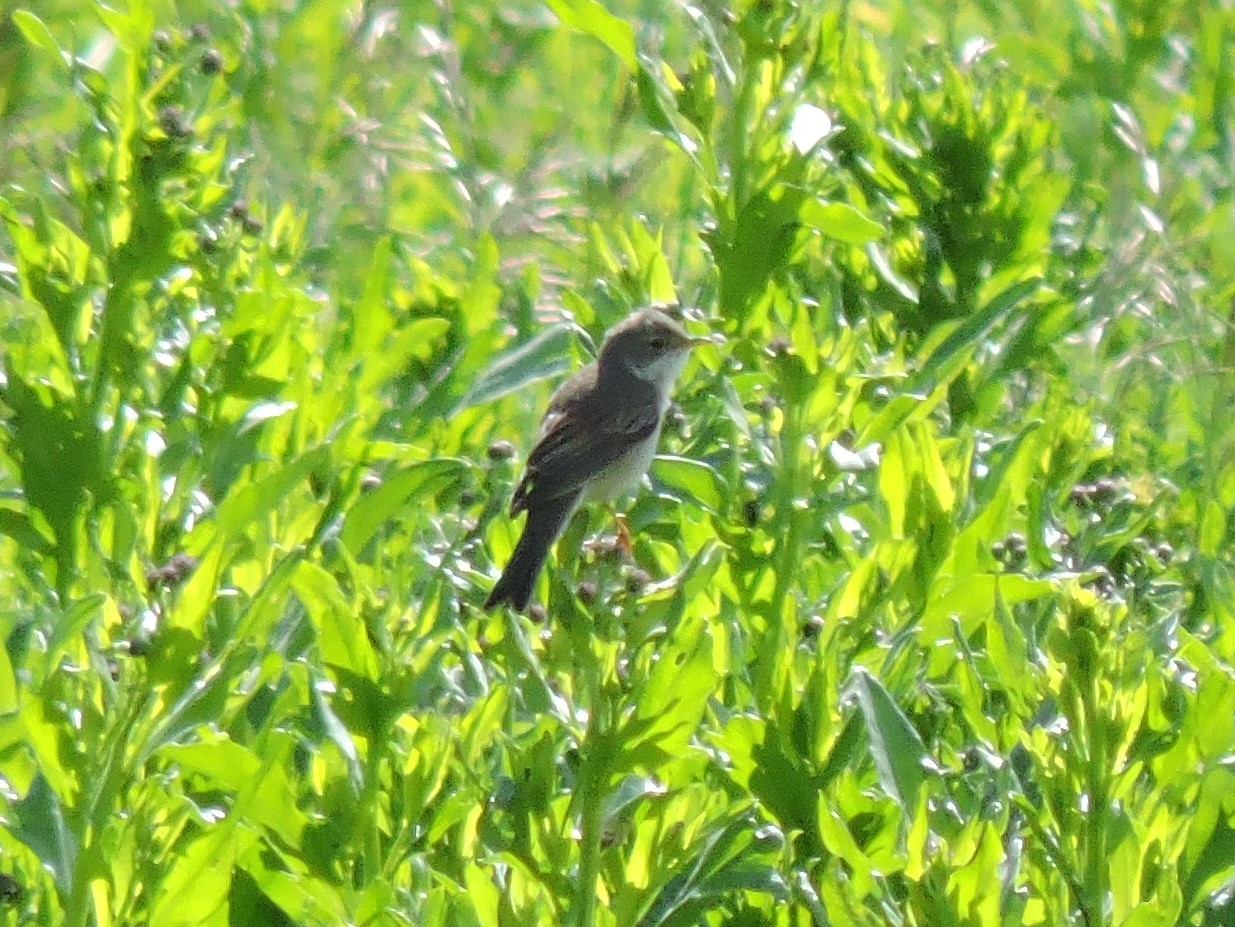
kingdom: Animalia
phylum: Chordata
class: Aves
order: Passeriformes
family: Sylviidae
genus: Sylvia
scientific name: Sylvia communis
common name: Common whitethroat
